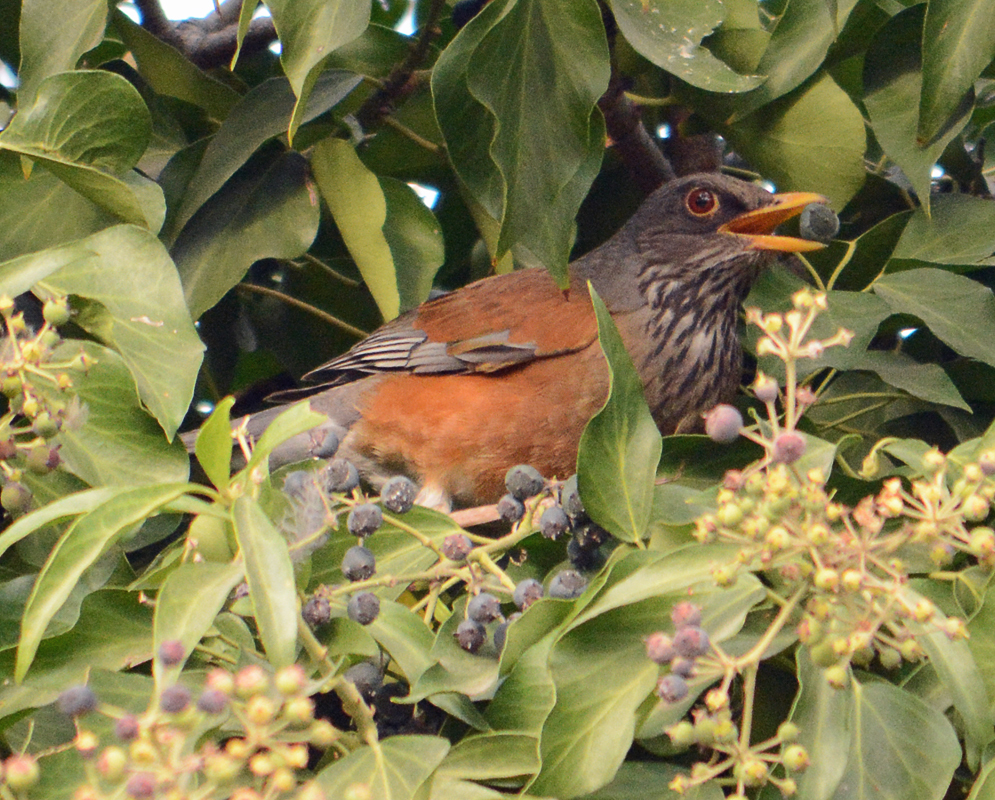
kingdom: Animalia
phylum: Chordata
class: Aves
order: Passeriformes
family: Turdidae
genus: Turdus
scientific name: Turdus rufopalliatus
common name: Rufous-backed robin
